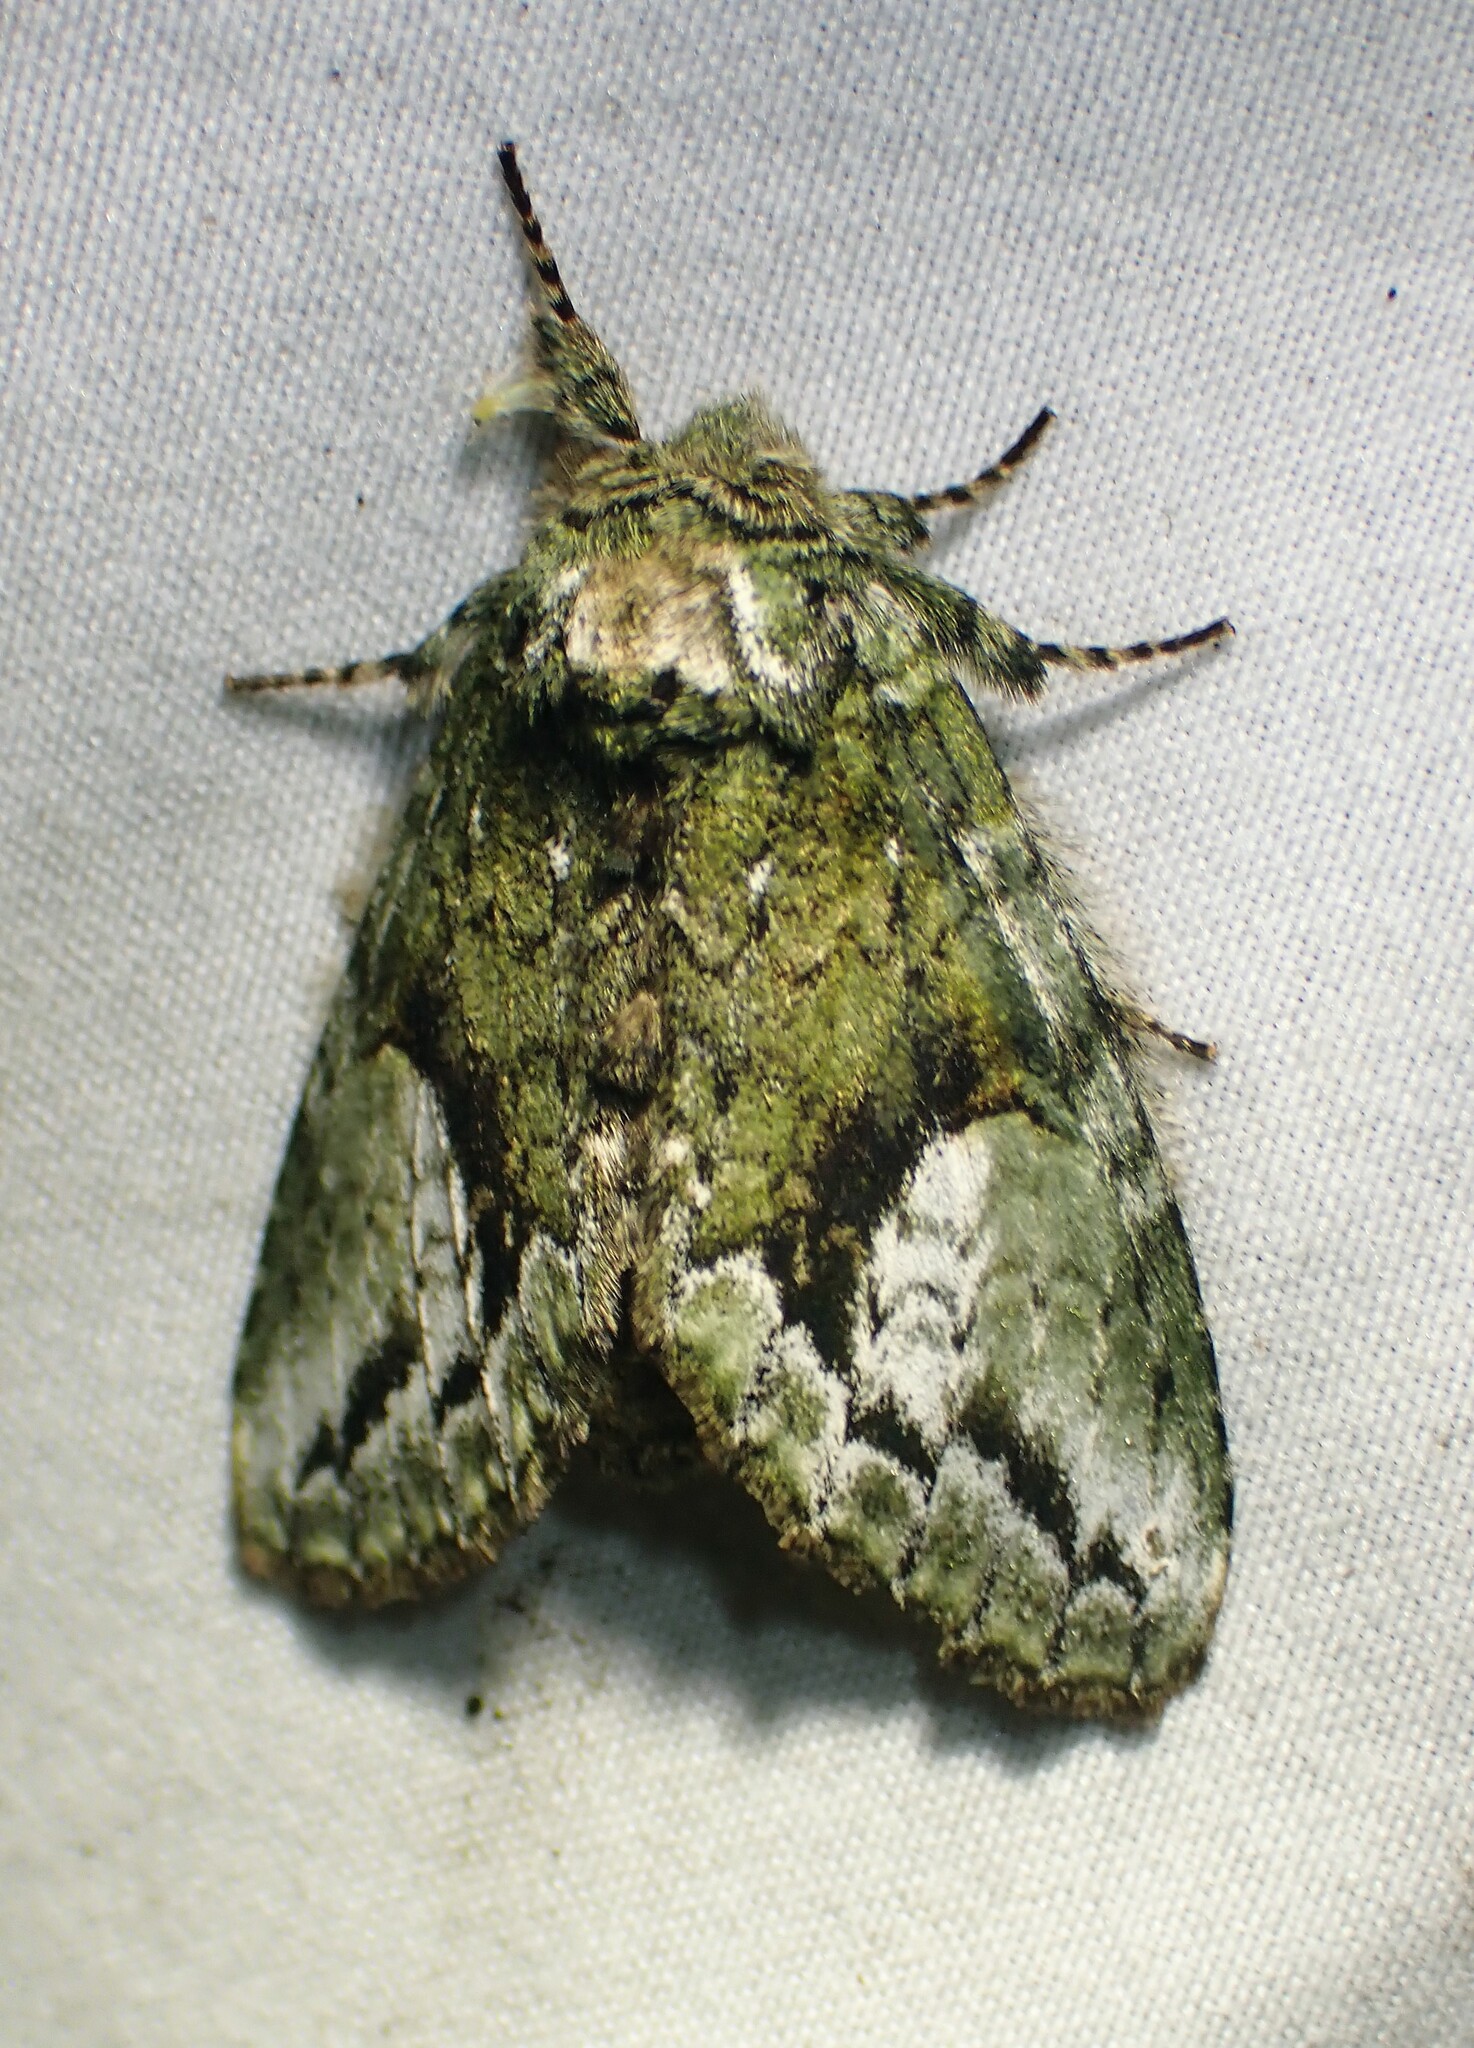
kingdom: Animalia
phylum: Arthropoda
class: Insecta
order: Lepidoptera
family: Notodontidae
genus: Heterocampa
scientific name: Heterocampa
